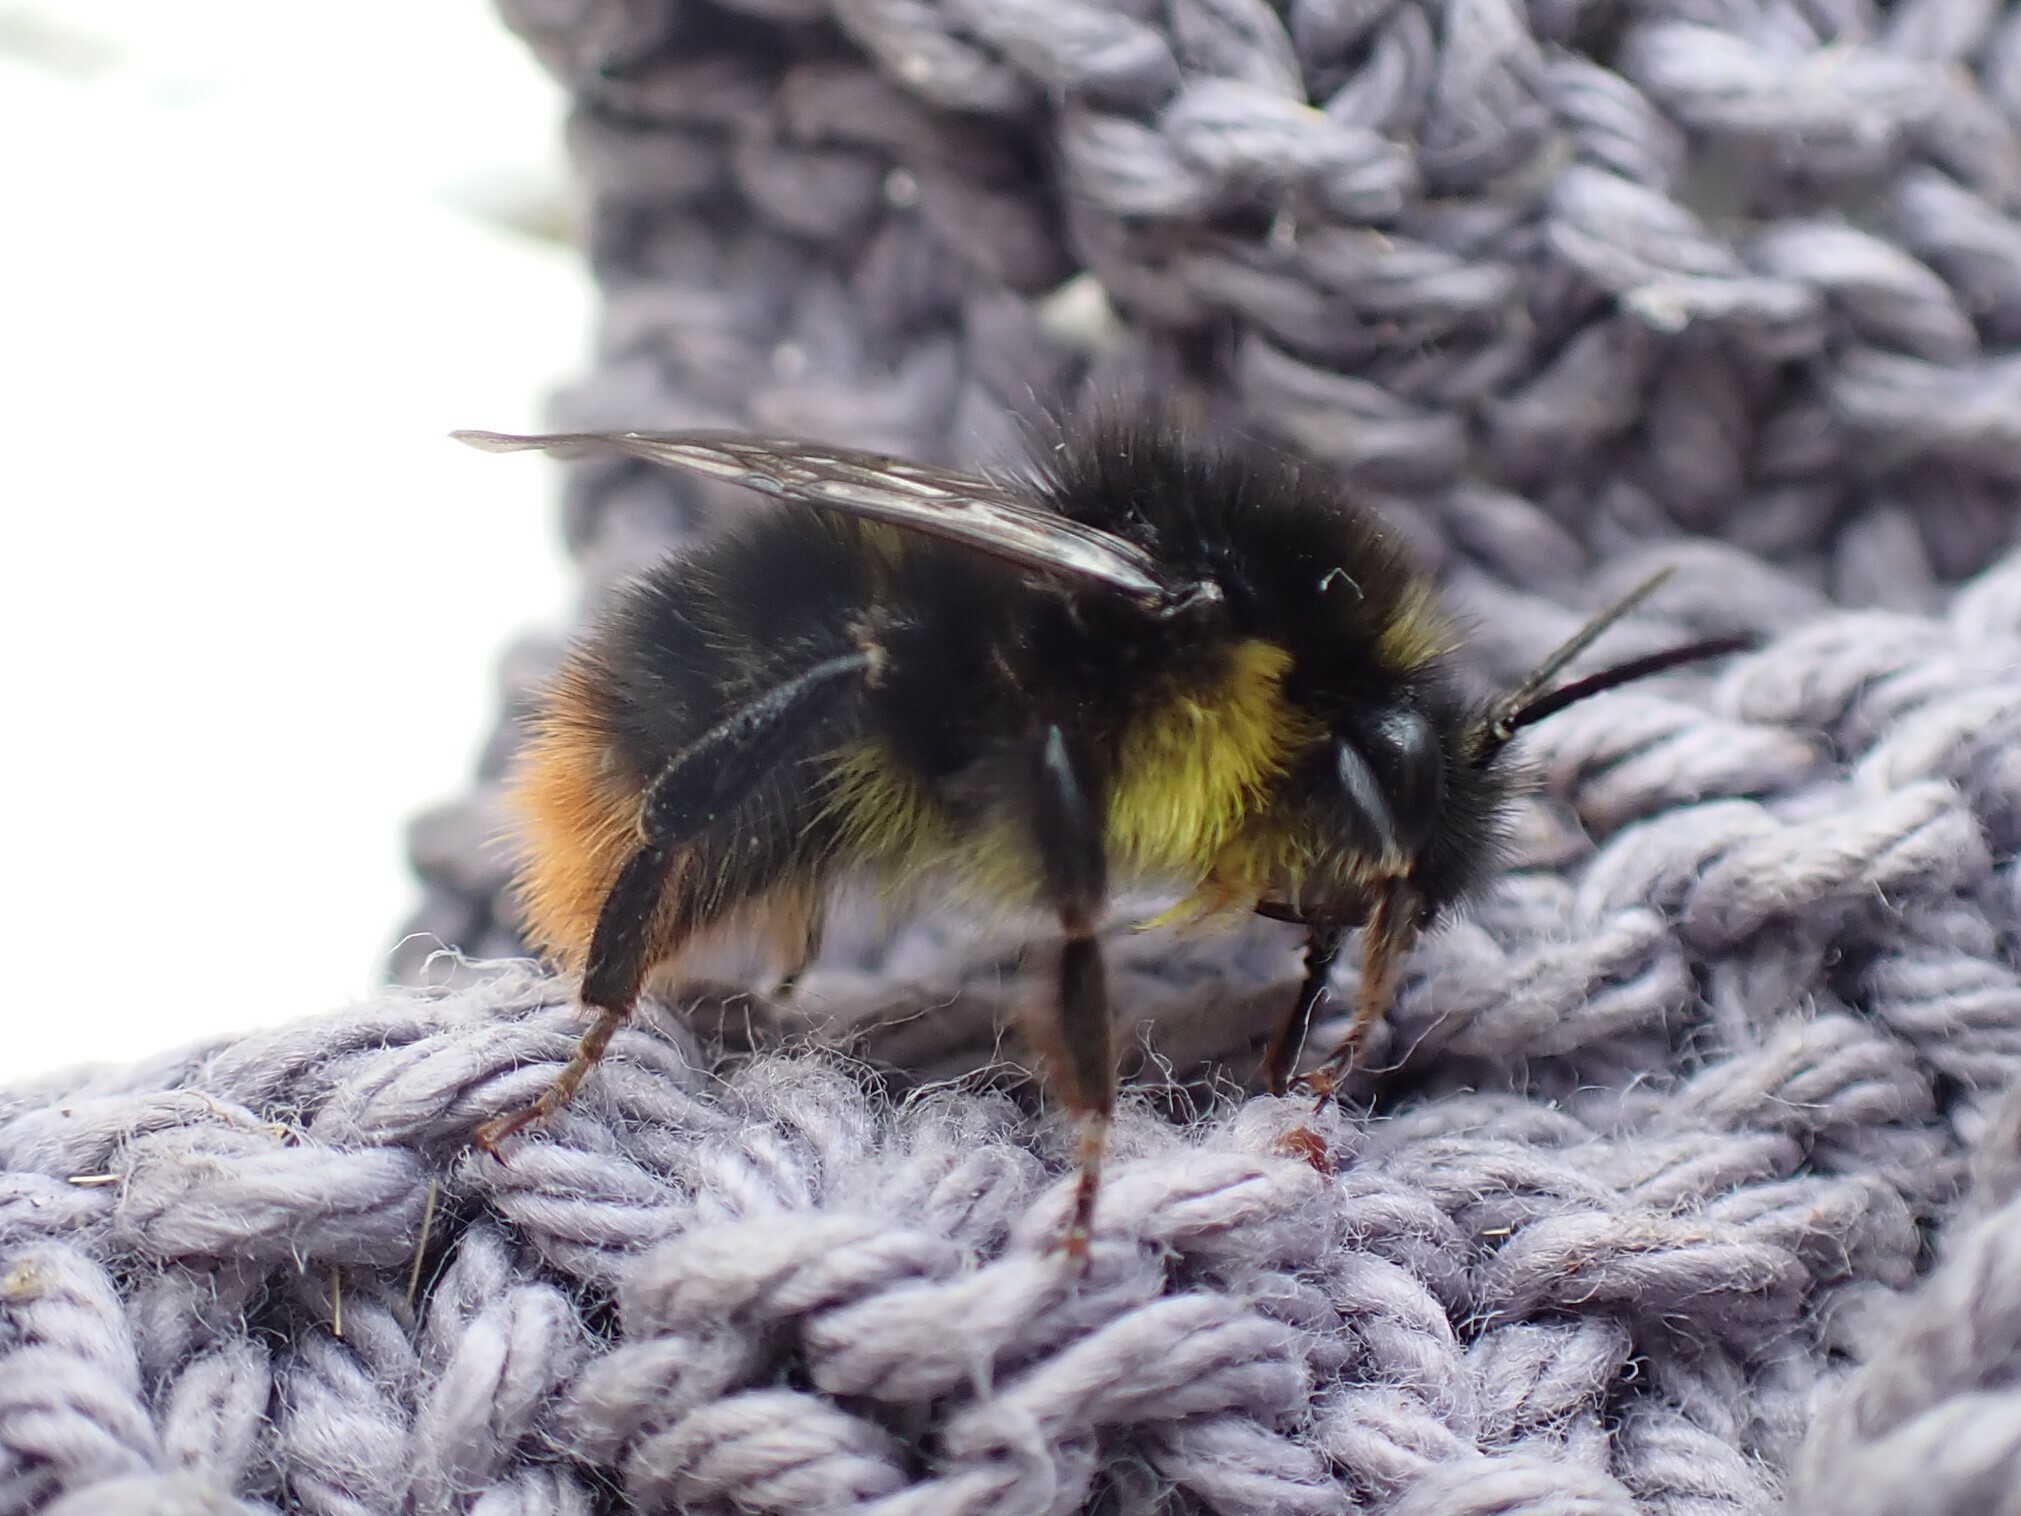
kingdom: Animalia
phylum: Arthropoda
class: Insecta
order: Hymenoptera
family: Apidae
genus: Bombus
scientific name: Bombus soroeensis
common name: Broken-belted humble-bee
